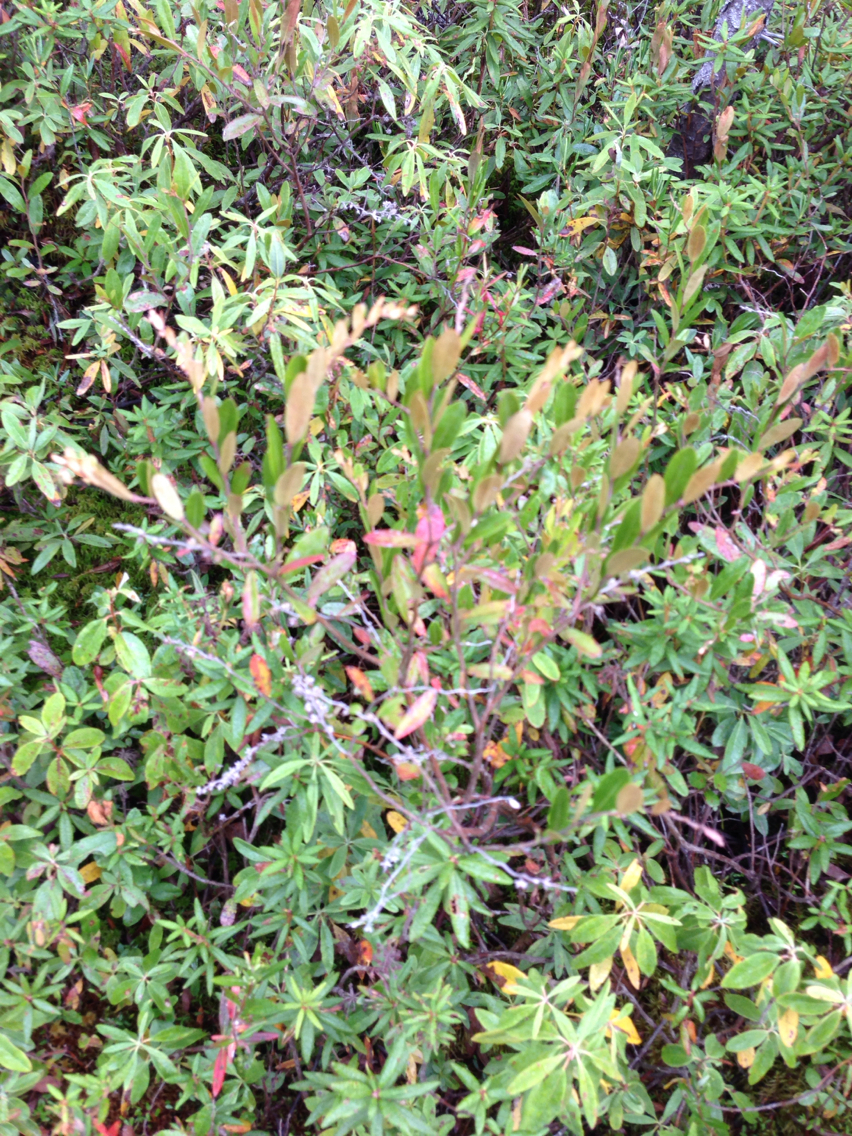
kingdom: Plantae
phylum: Tracheophyta
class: Magnoliopsida
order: Ericales
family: Ericaceae
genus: Chamaedaphne
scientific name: Chamaedaphne calyculata
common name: Leatherleaf
